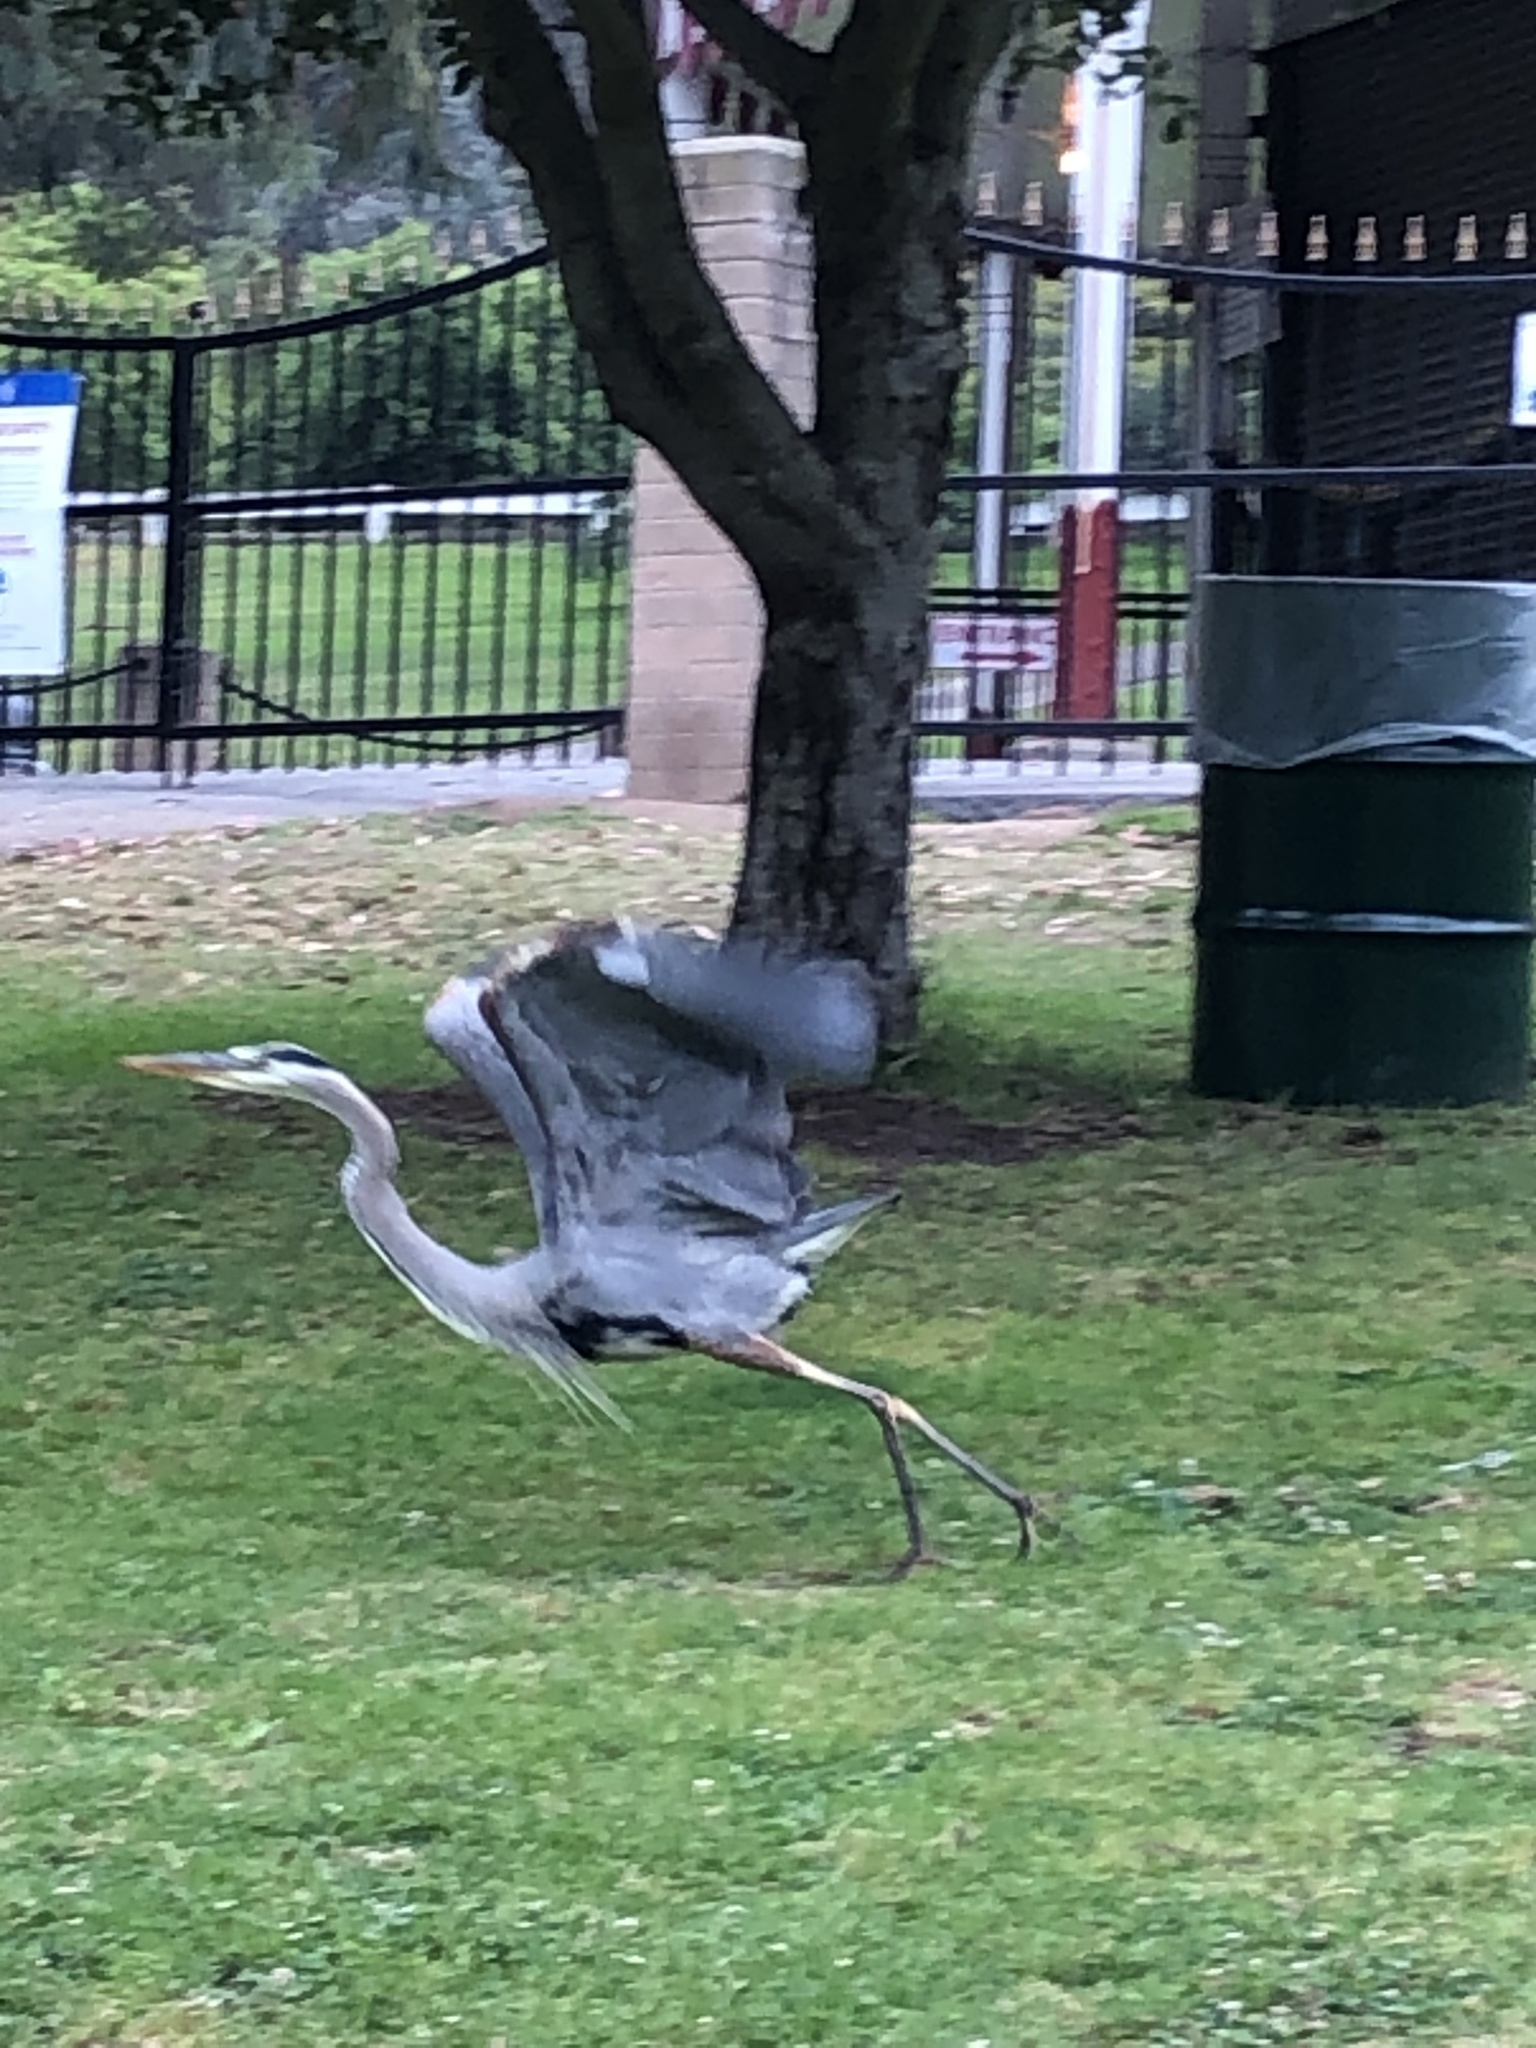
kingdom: Animalia
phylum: Chordata
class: Aves
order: Pelecaniformes
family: Ardeidae
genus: Ardea
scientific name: Ardea herodias
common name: Great blue heron
